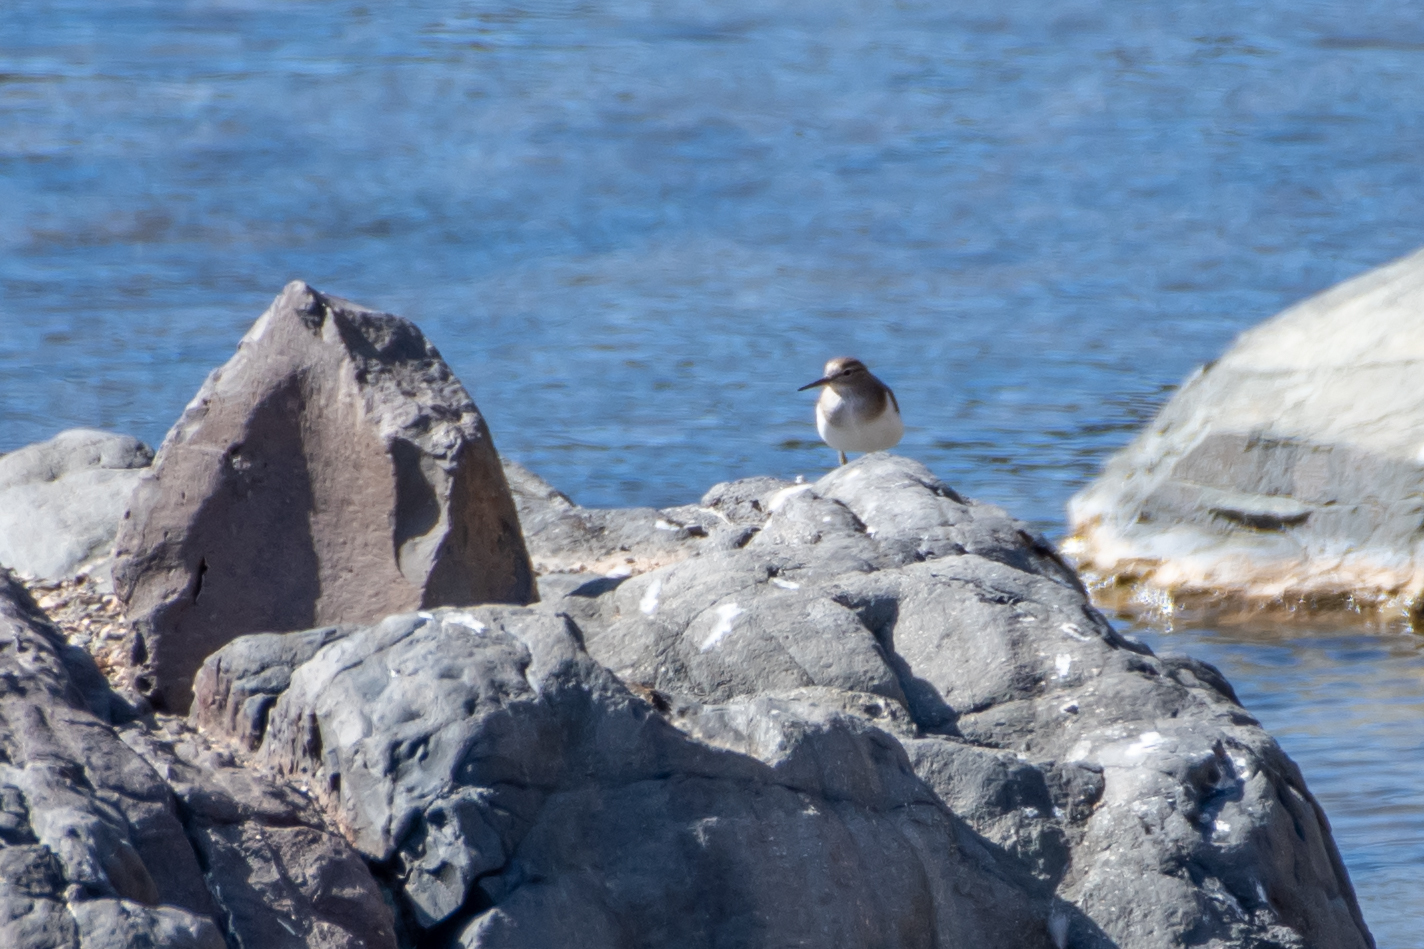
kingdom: Animalia
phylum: Chordata
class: Aves
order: Charadriiformes
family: Scolopacidae
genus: Actitis
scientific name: Actitis hypoleucos
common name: Common sandpiper
